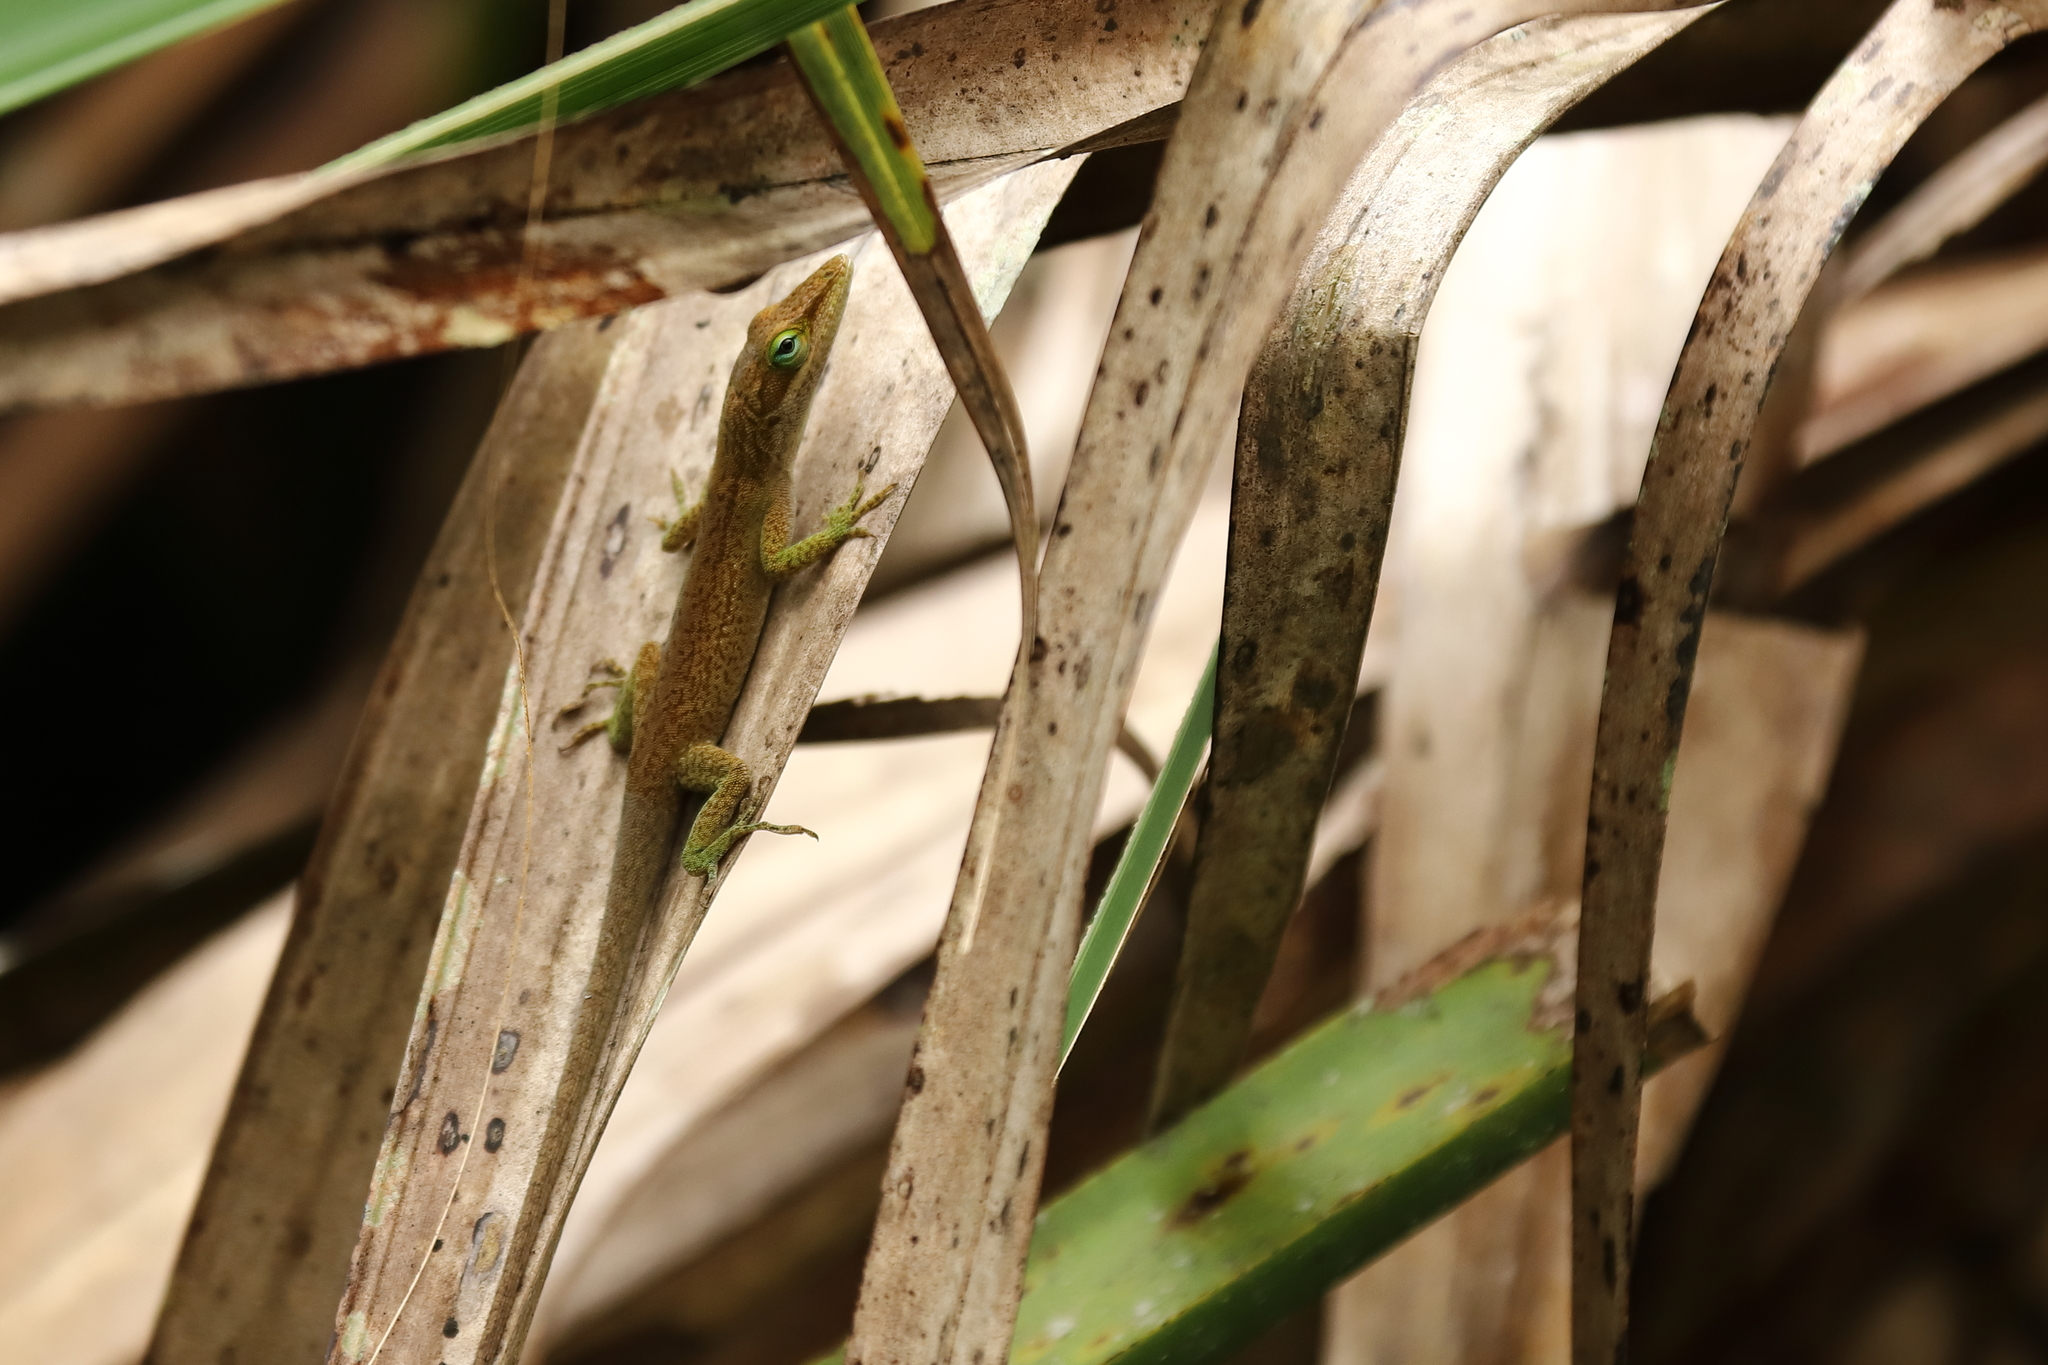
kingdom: Animalia
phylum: Chordata
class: Squamata
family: Dactyloidae
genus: Anolis
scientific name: Anolis carolinensis
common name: Green anole
